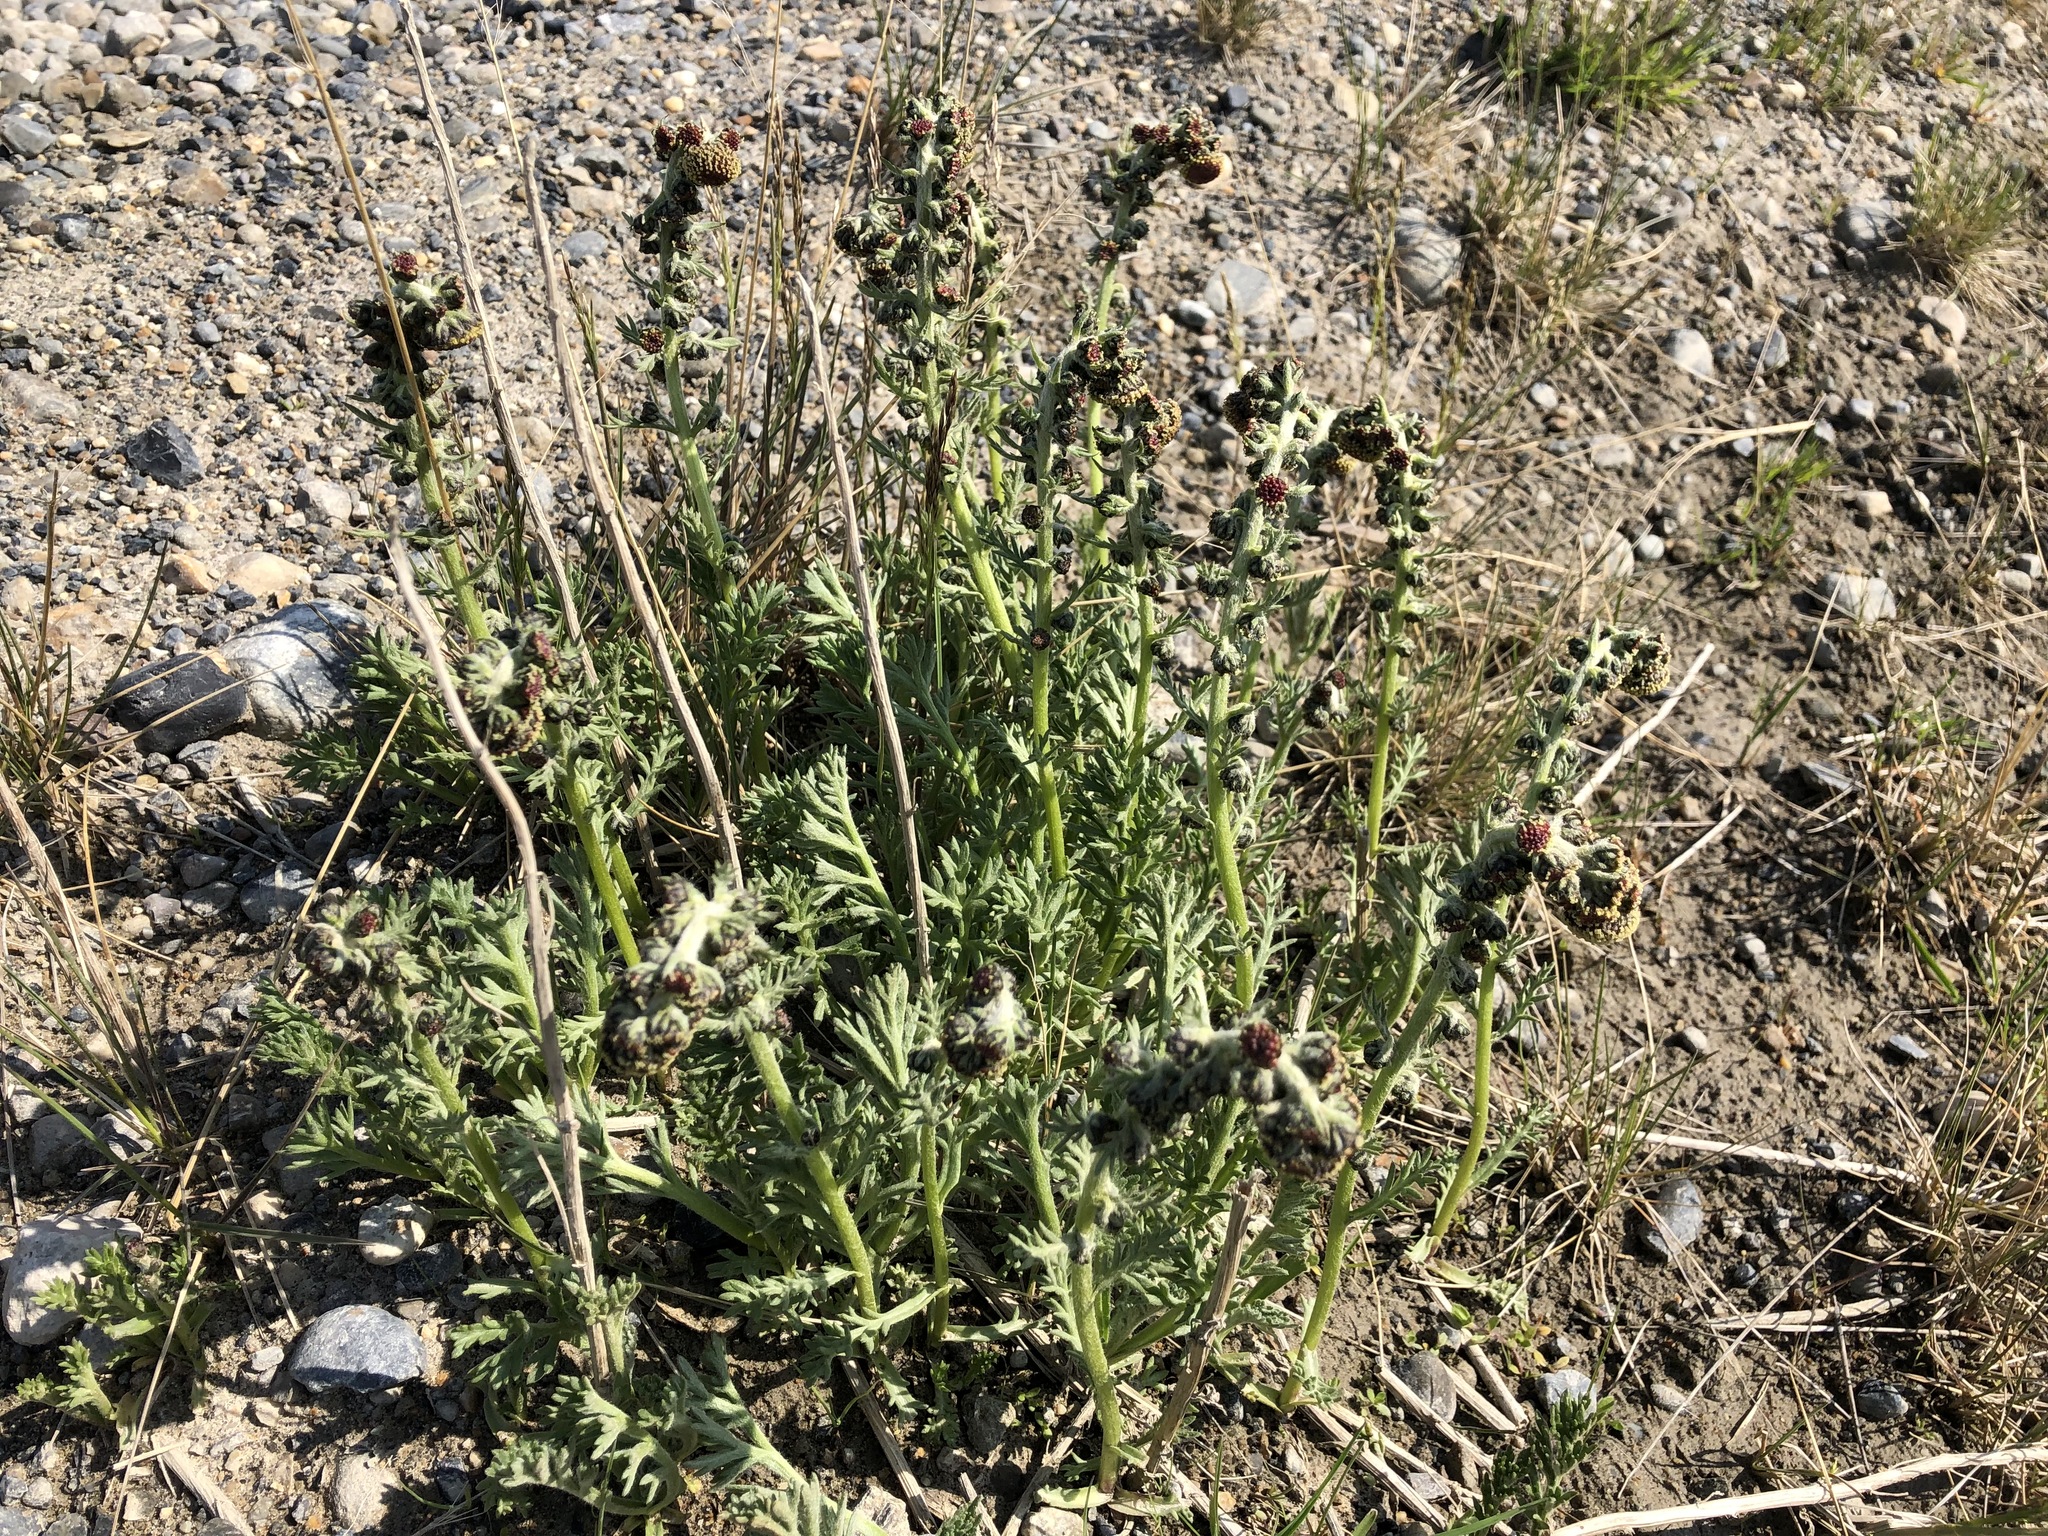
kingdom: Plantae
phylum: Tracheophyta
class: Magnoliopsida
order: Asterales
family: Asteraceae
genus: Artemisia
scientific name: Artemisia norvegica
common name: Norwegian mugwort
